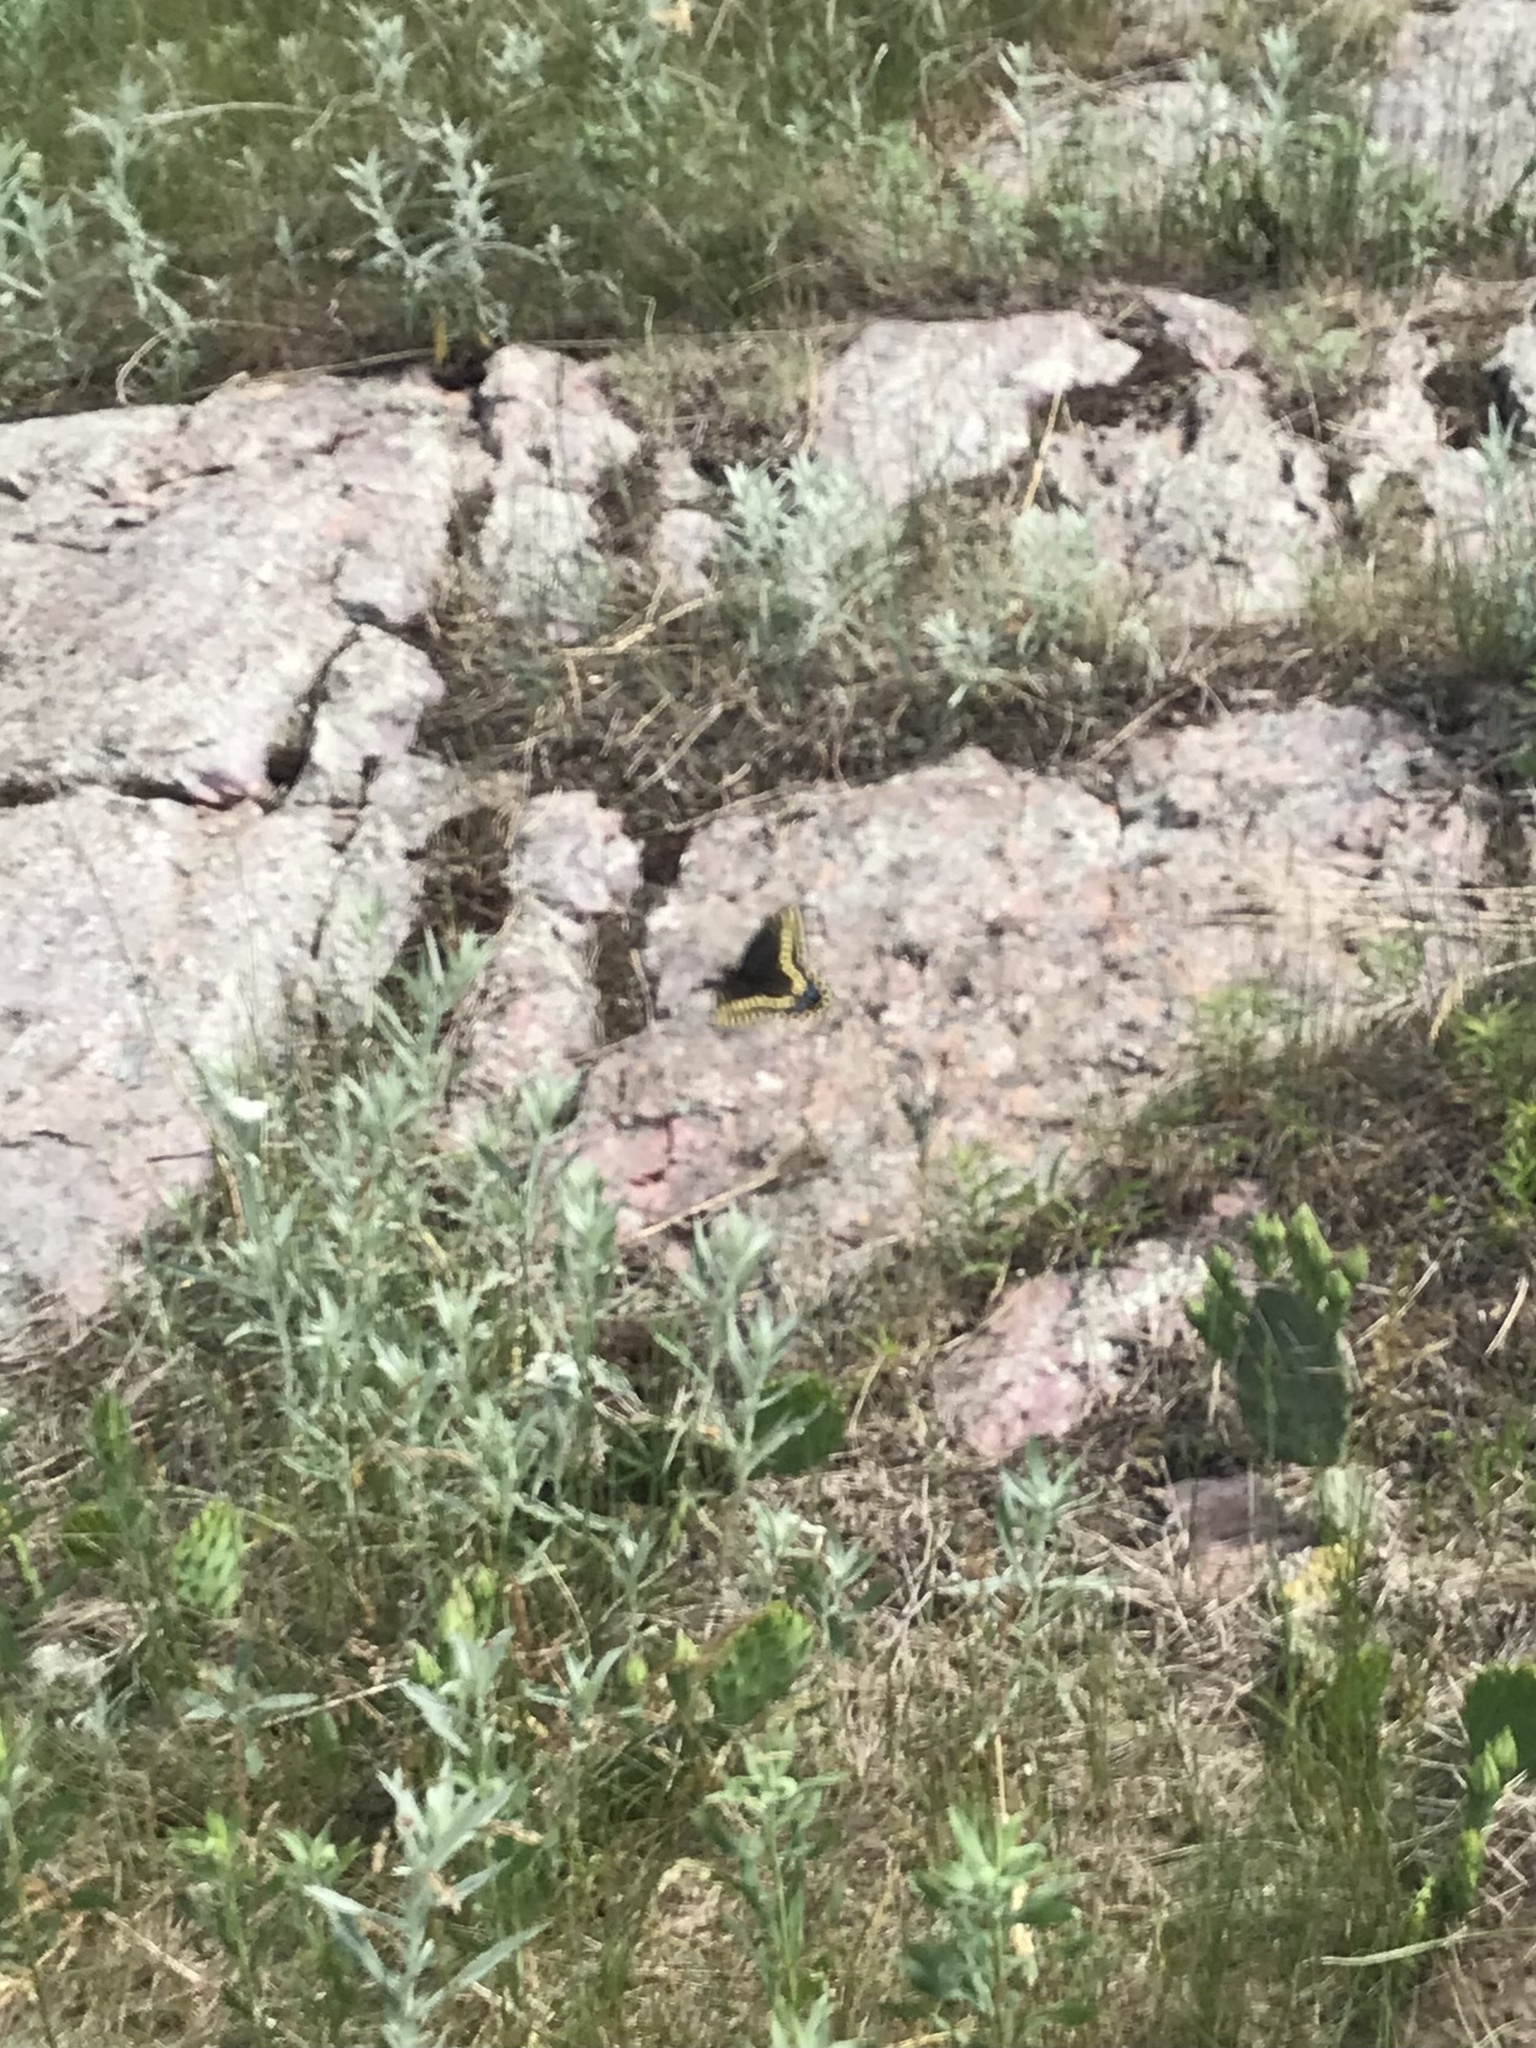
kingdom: Animalia
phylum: Arthropoda
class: Insecta
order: Lepidoptera
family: Papilionidae
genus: Papilio
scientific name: Papilio polyxenes
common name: Black swallowtail
